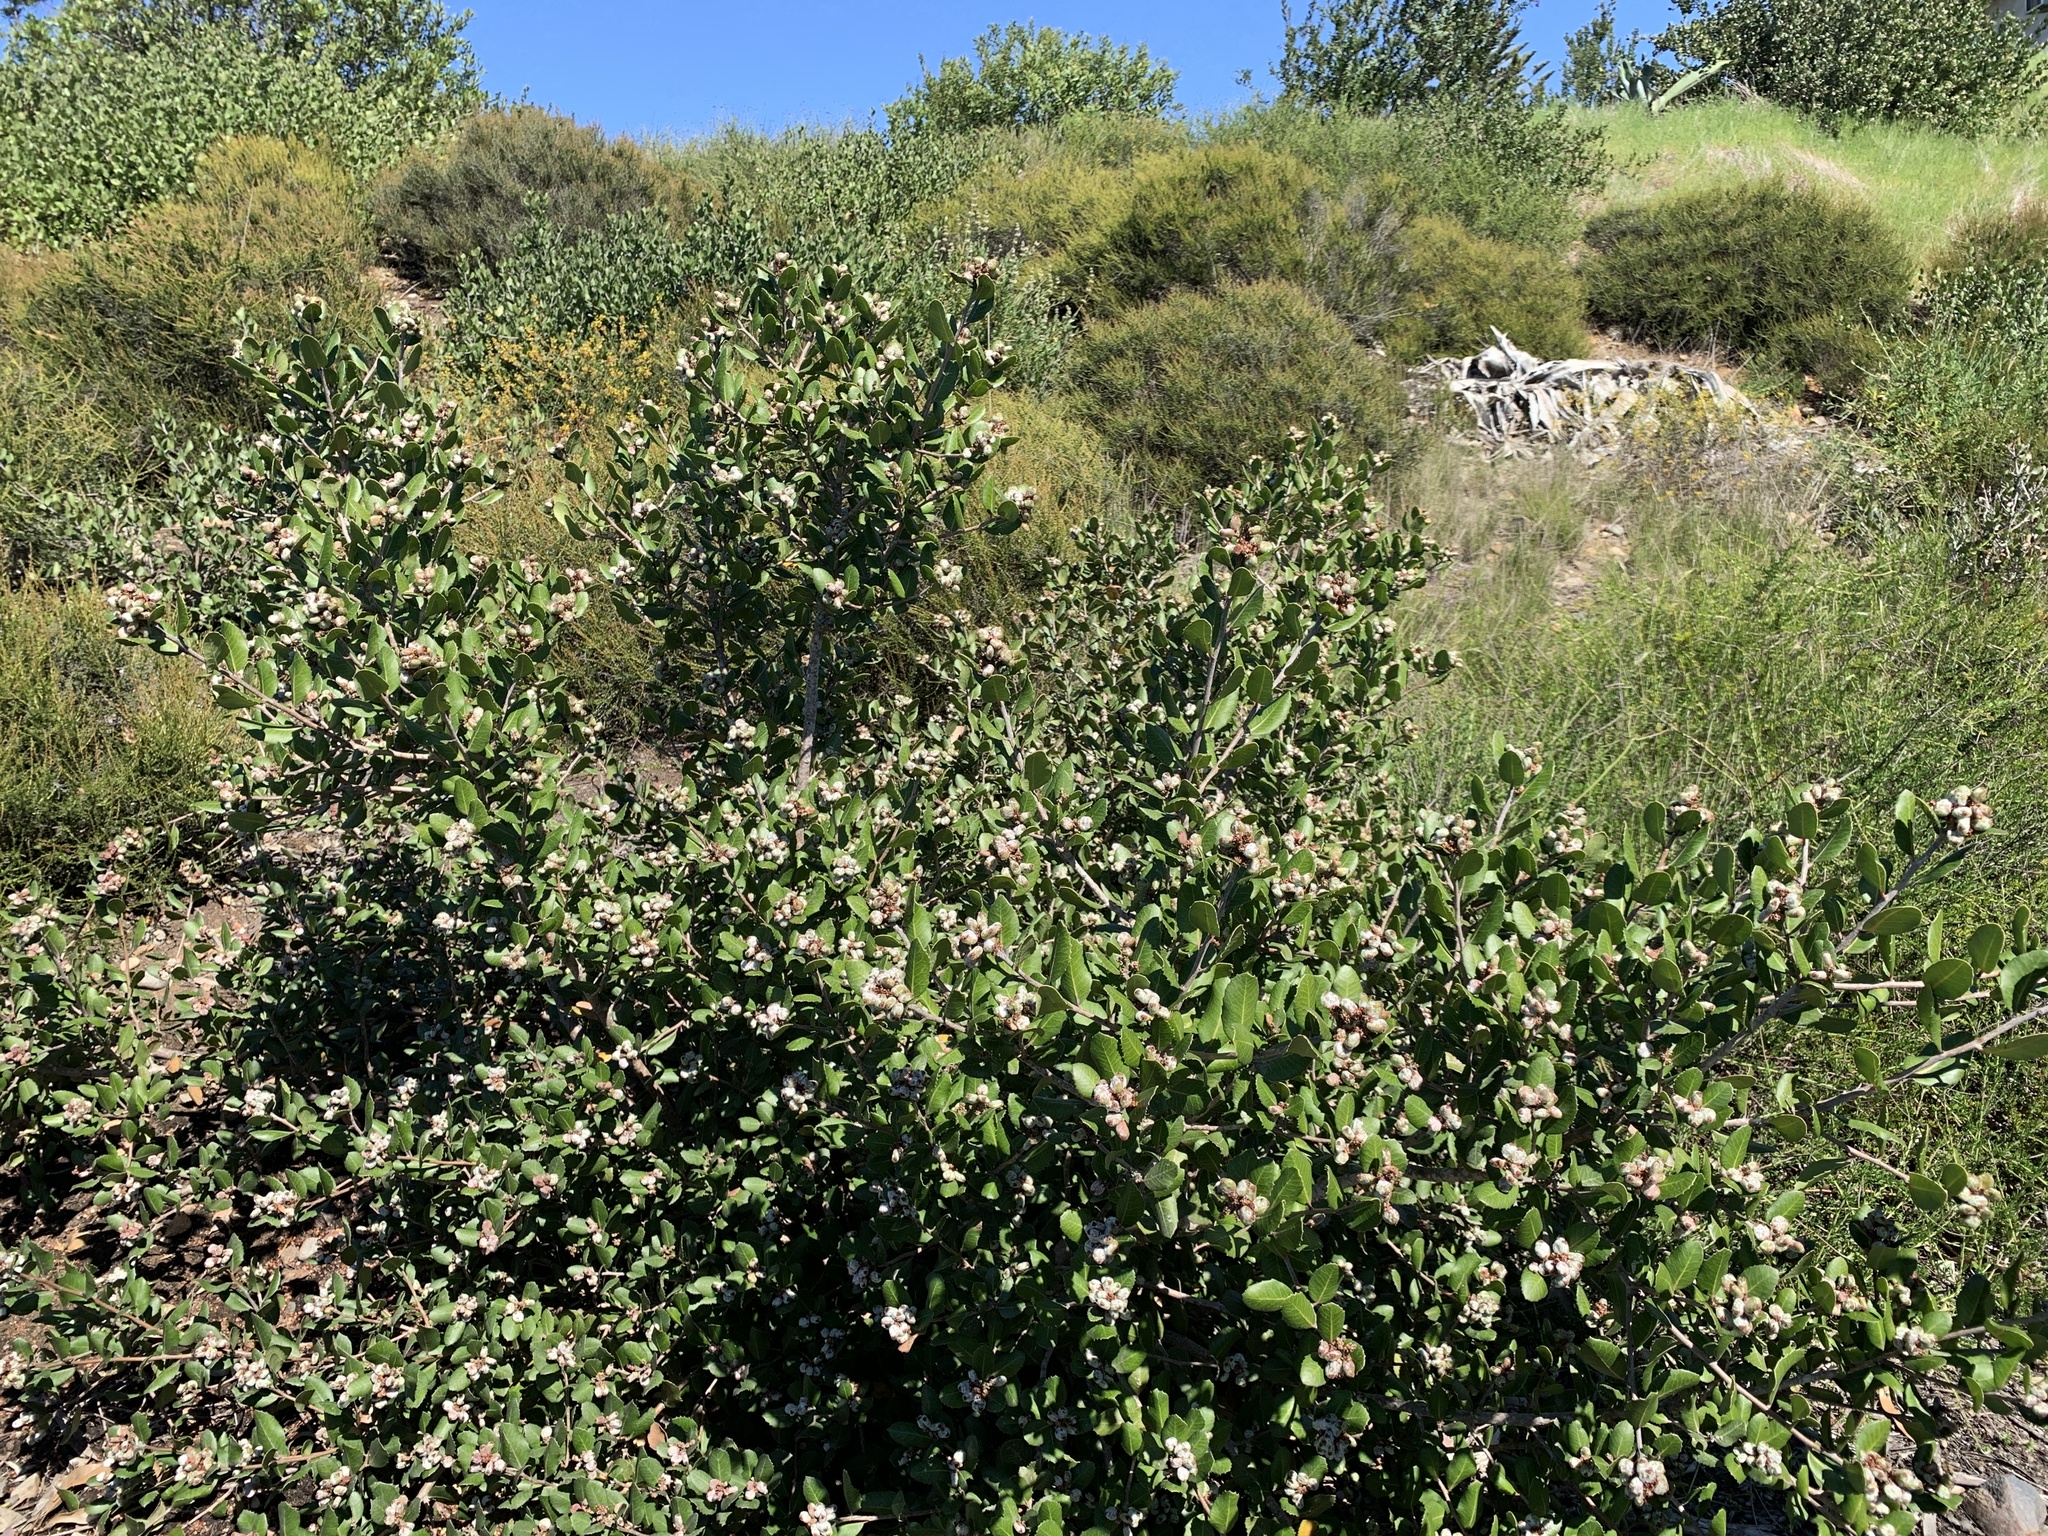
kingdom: Plantae
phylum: Tracheophyta
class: Magnoliopsida
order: Sapindales
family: Anacardiaceae
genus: Rhus
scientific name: Rhus integrifolia
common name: Lemonade sumac
